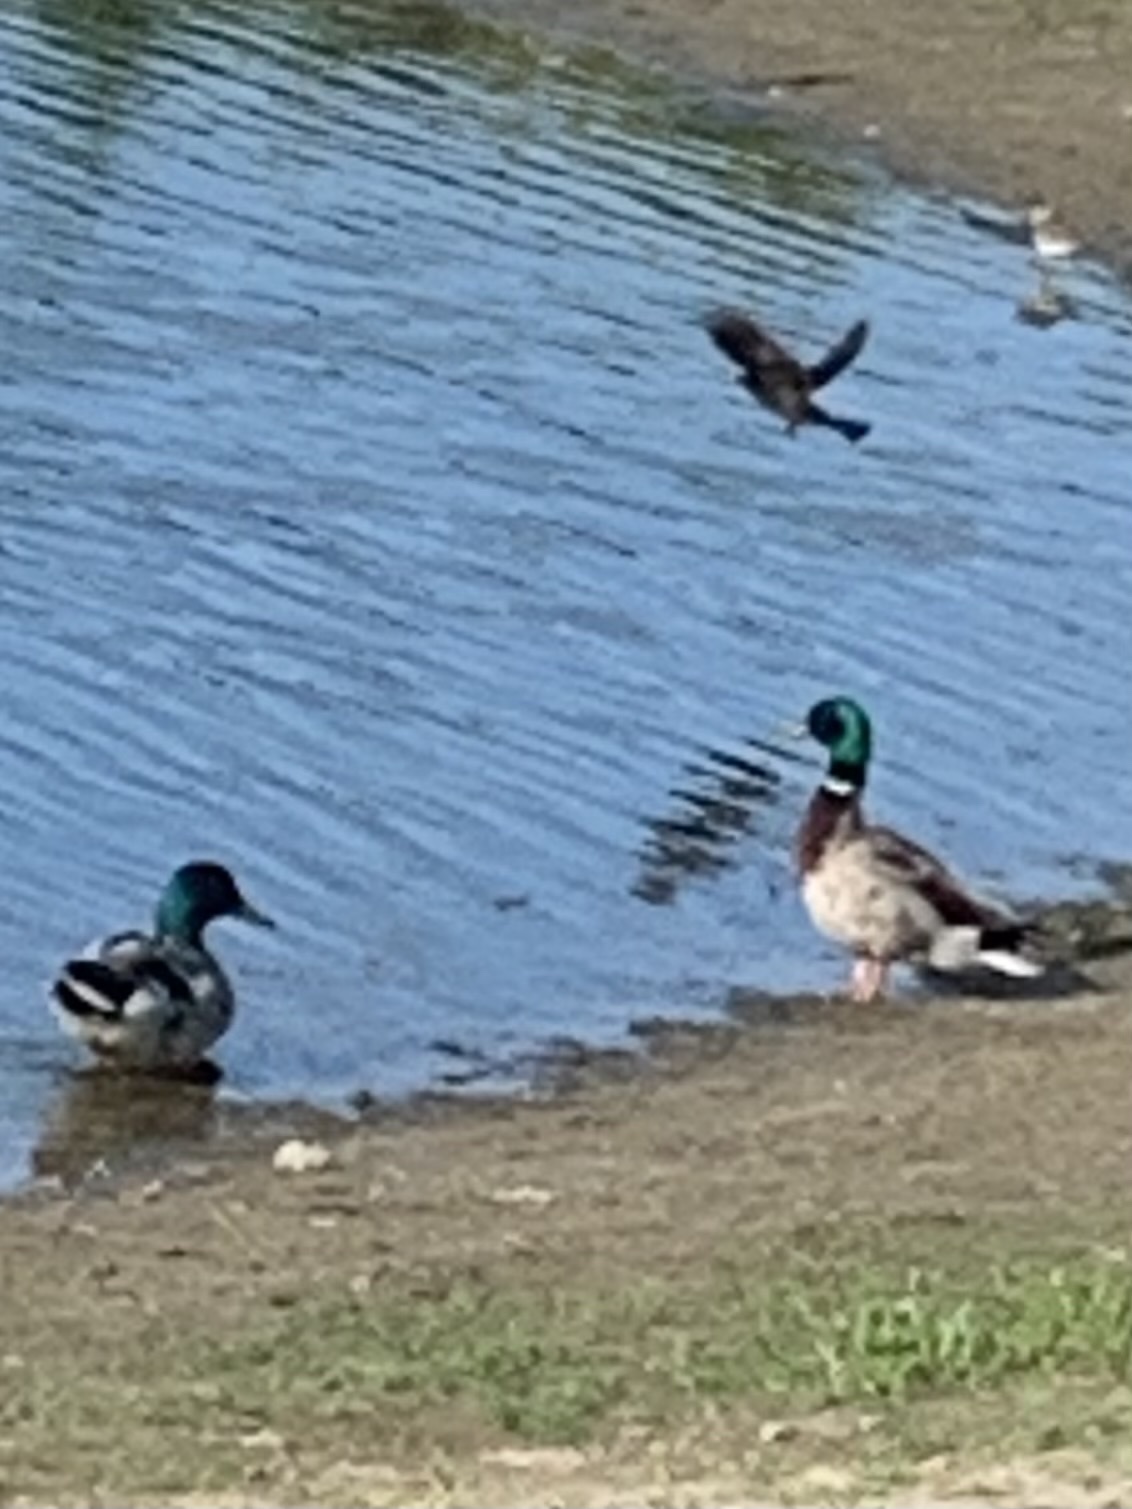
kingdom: Animalia
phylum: Chordata
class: Aves
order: Anseriformes
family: Anatidae
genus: Anas
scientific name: Anas platyrhynchos
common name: Mallard
